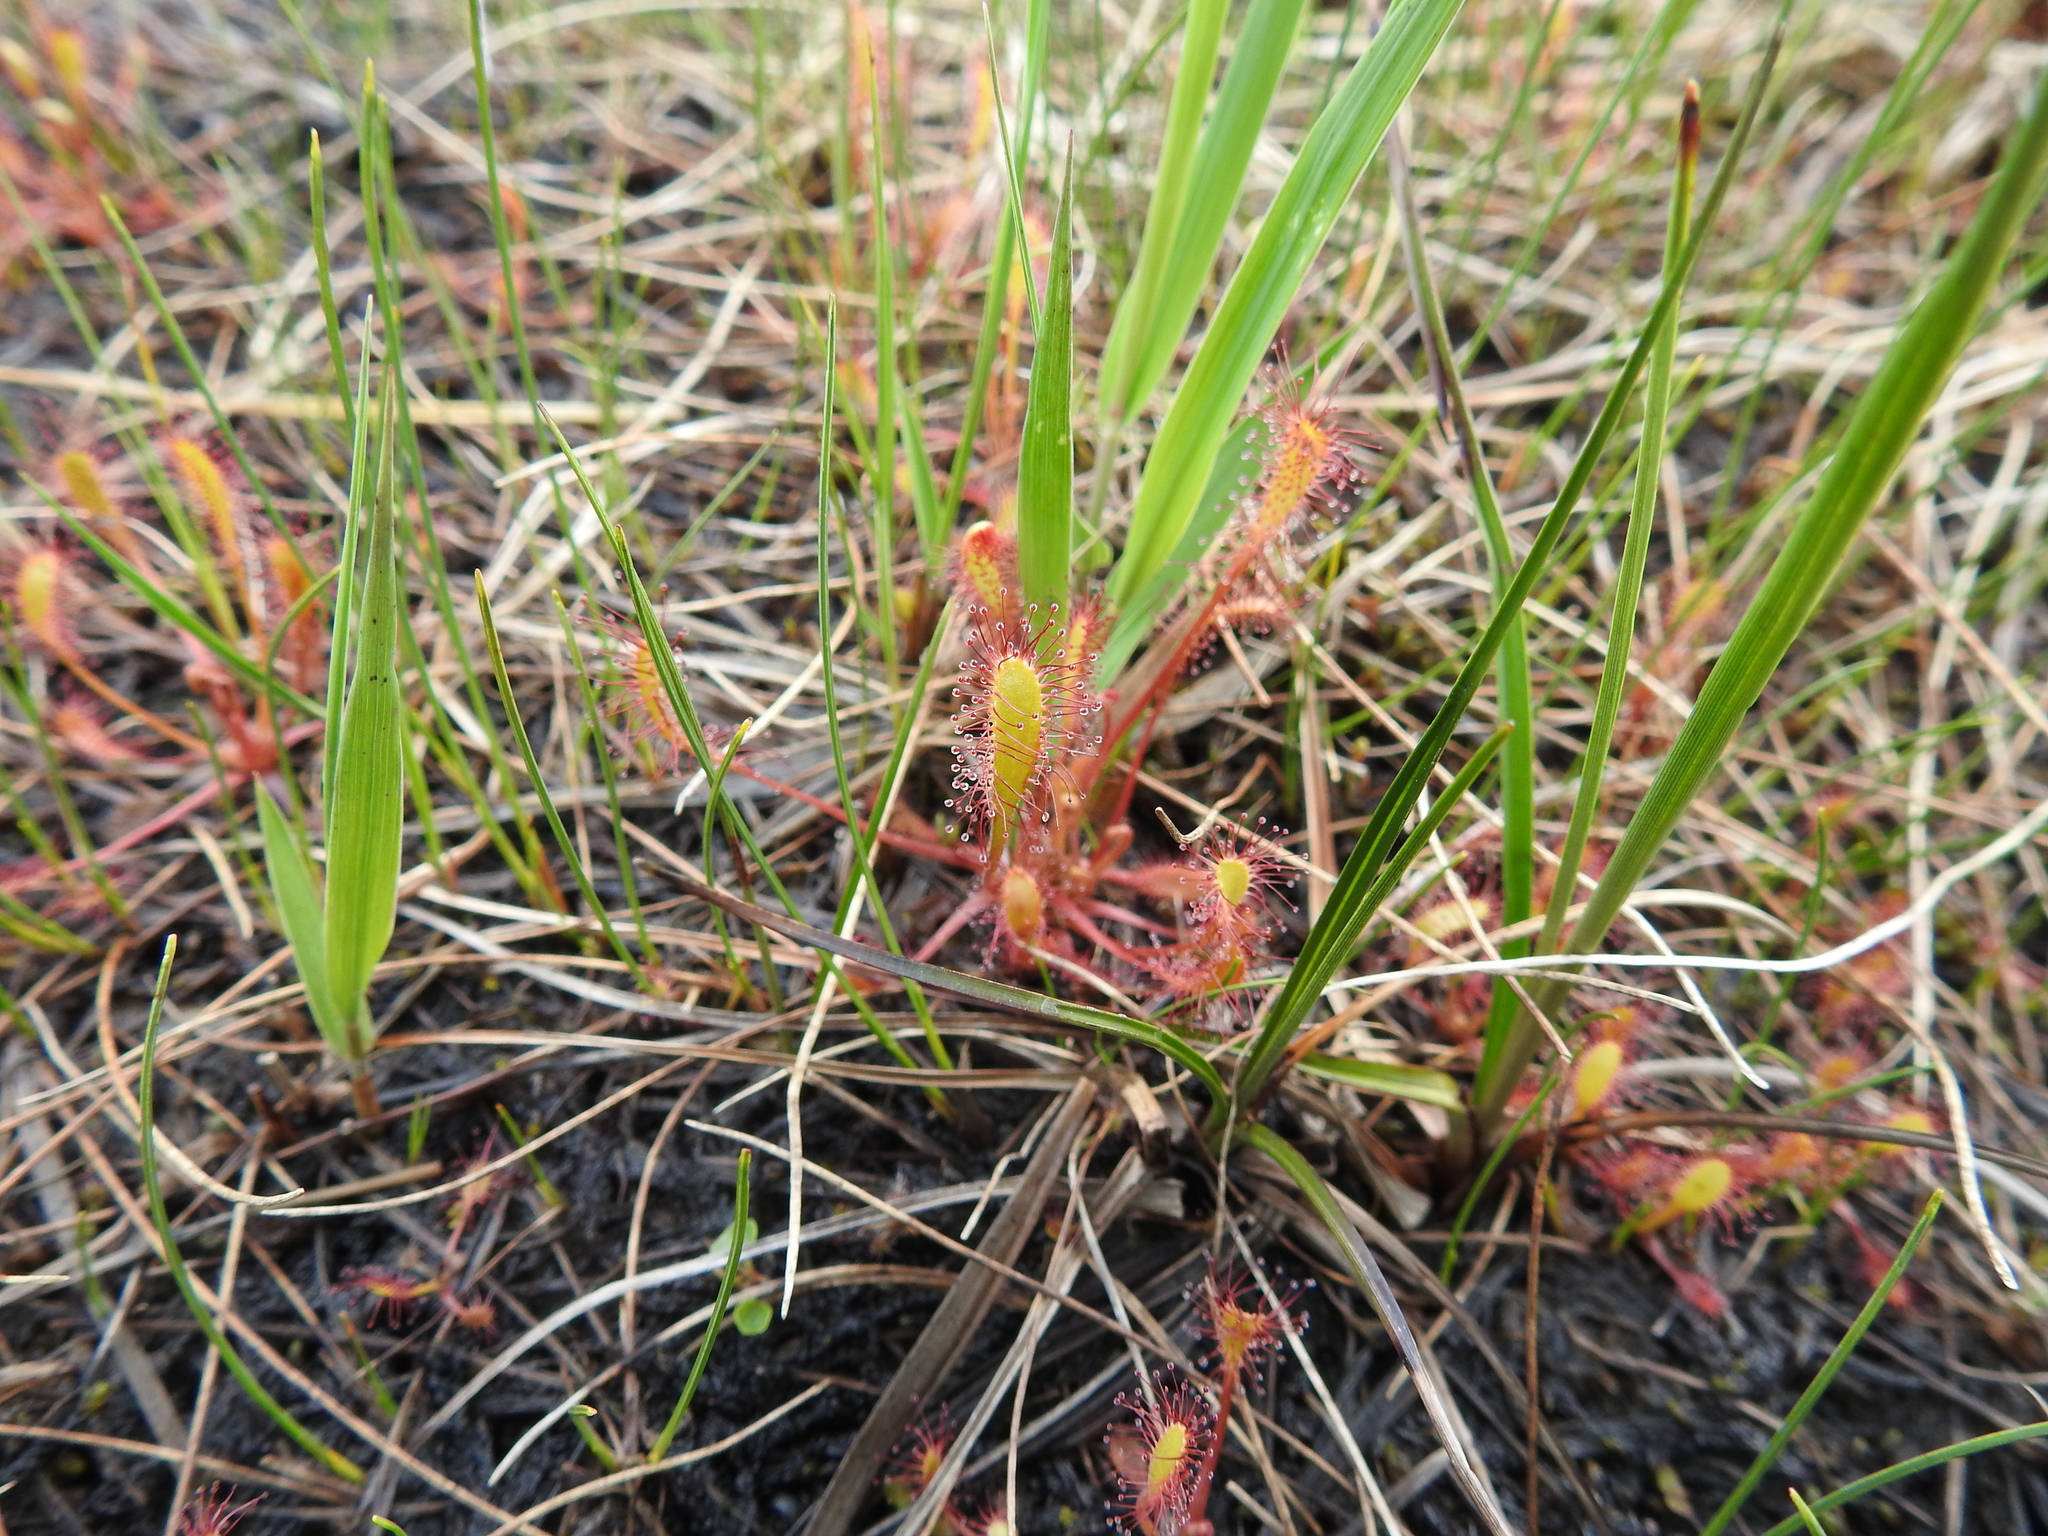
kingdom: Plantae
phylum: Tracheophyta
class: Magnoliopsida
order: Caryophyllales
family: Droseraceae
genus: Drosera
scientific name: Drosera anglica
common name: Great sundew
